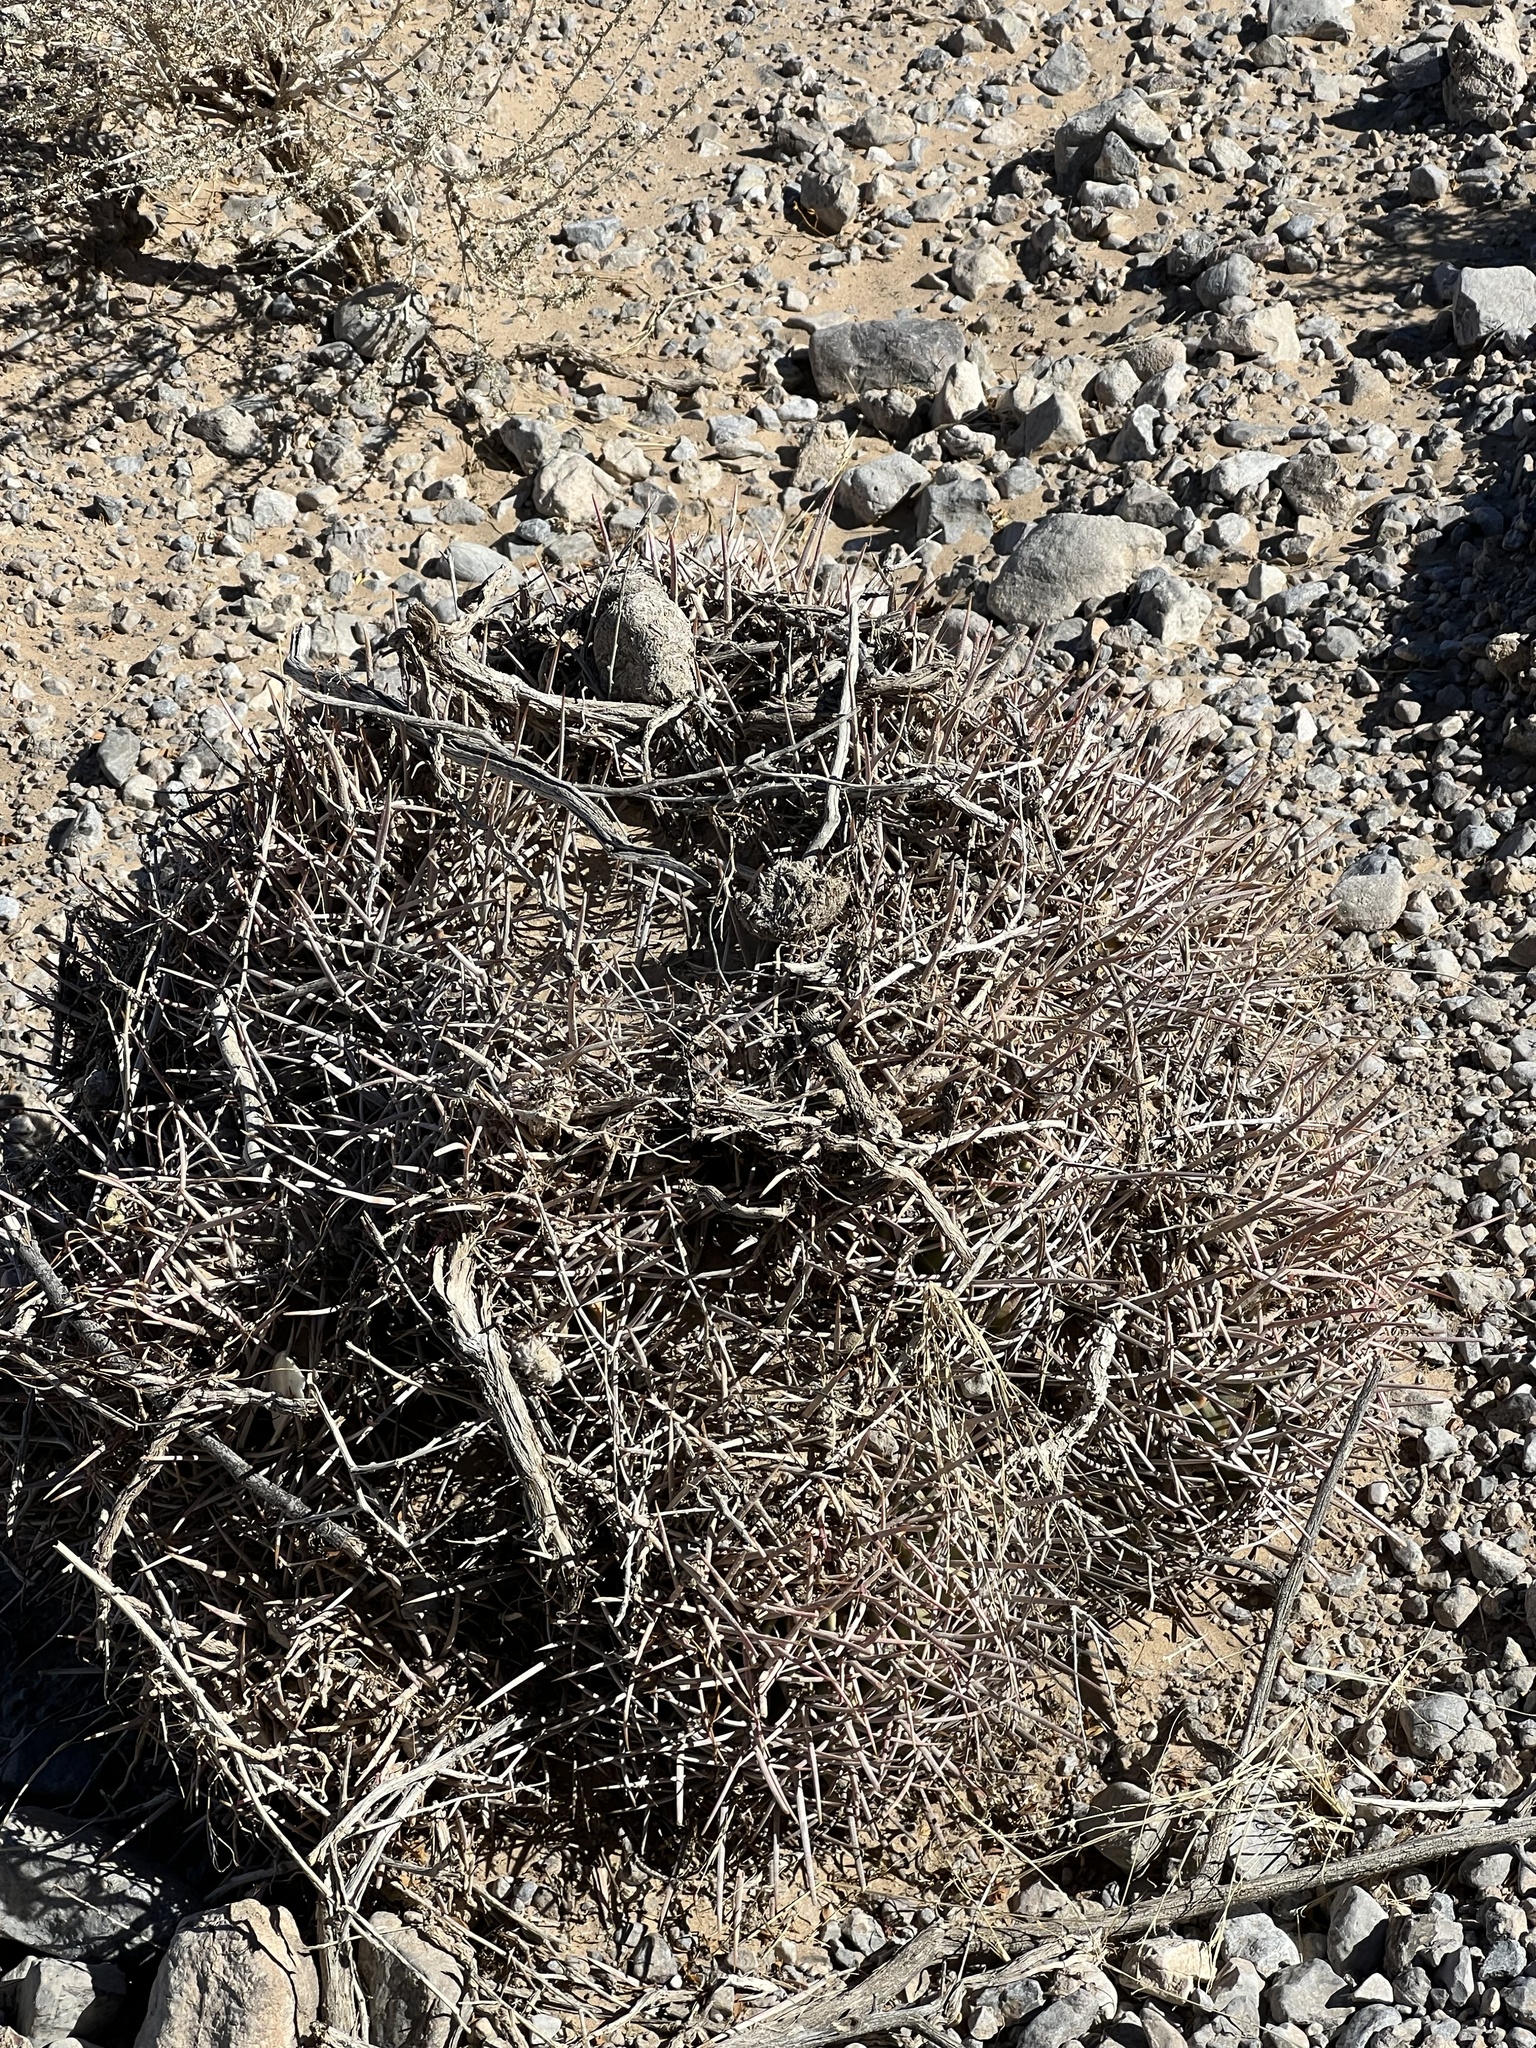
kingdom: Plantae
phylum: Tracheophyta
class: Magnoliopsida
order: Caryophyllales
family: Cactaceae
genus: Echinocactus
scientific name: Echinocactus polycephalus
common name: Cottontop cactus
